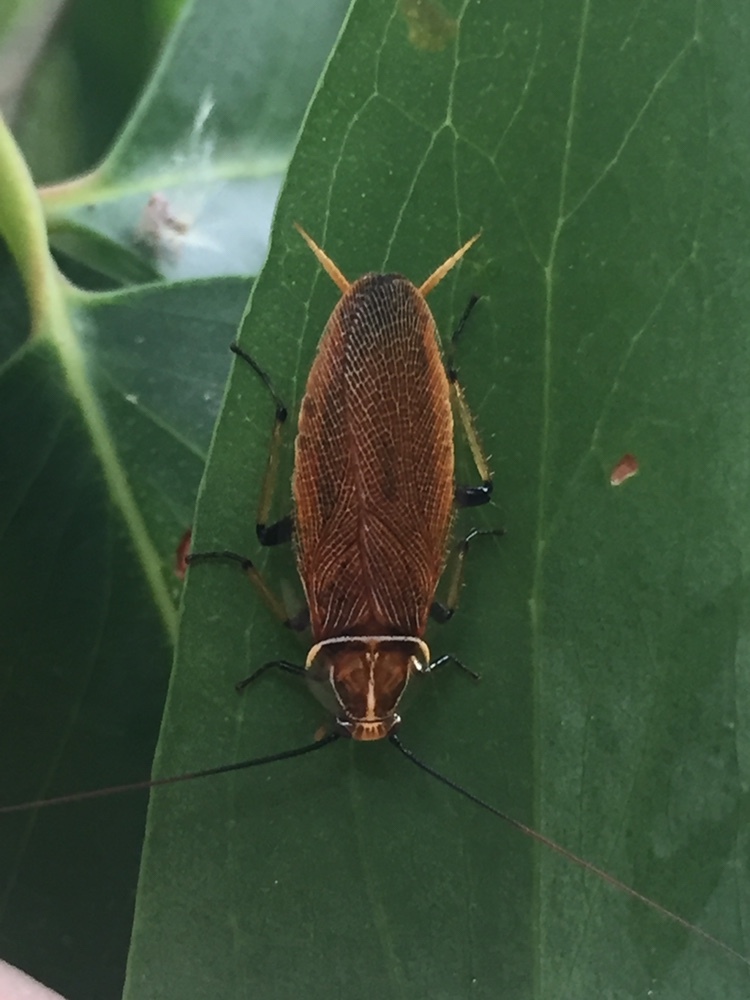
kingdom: Animalia
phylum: Arthropoda
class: Insecta
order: Blattodea
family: Ectobiidae
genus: Balta
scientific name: Balta bicolor
